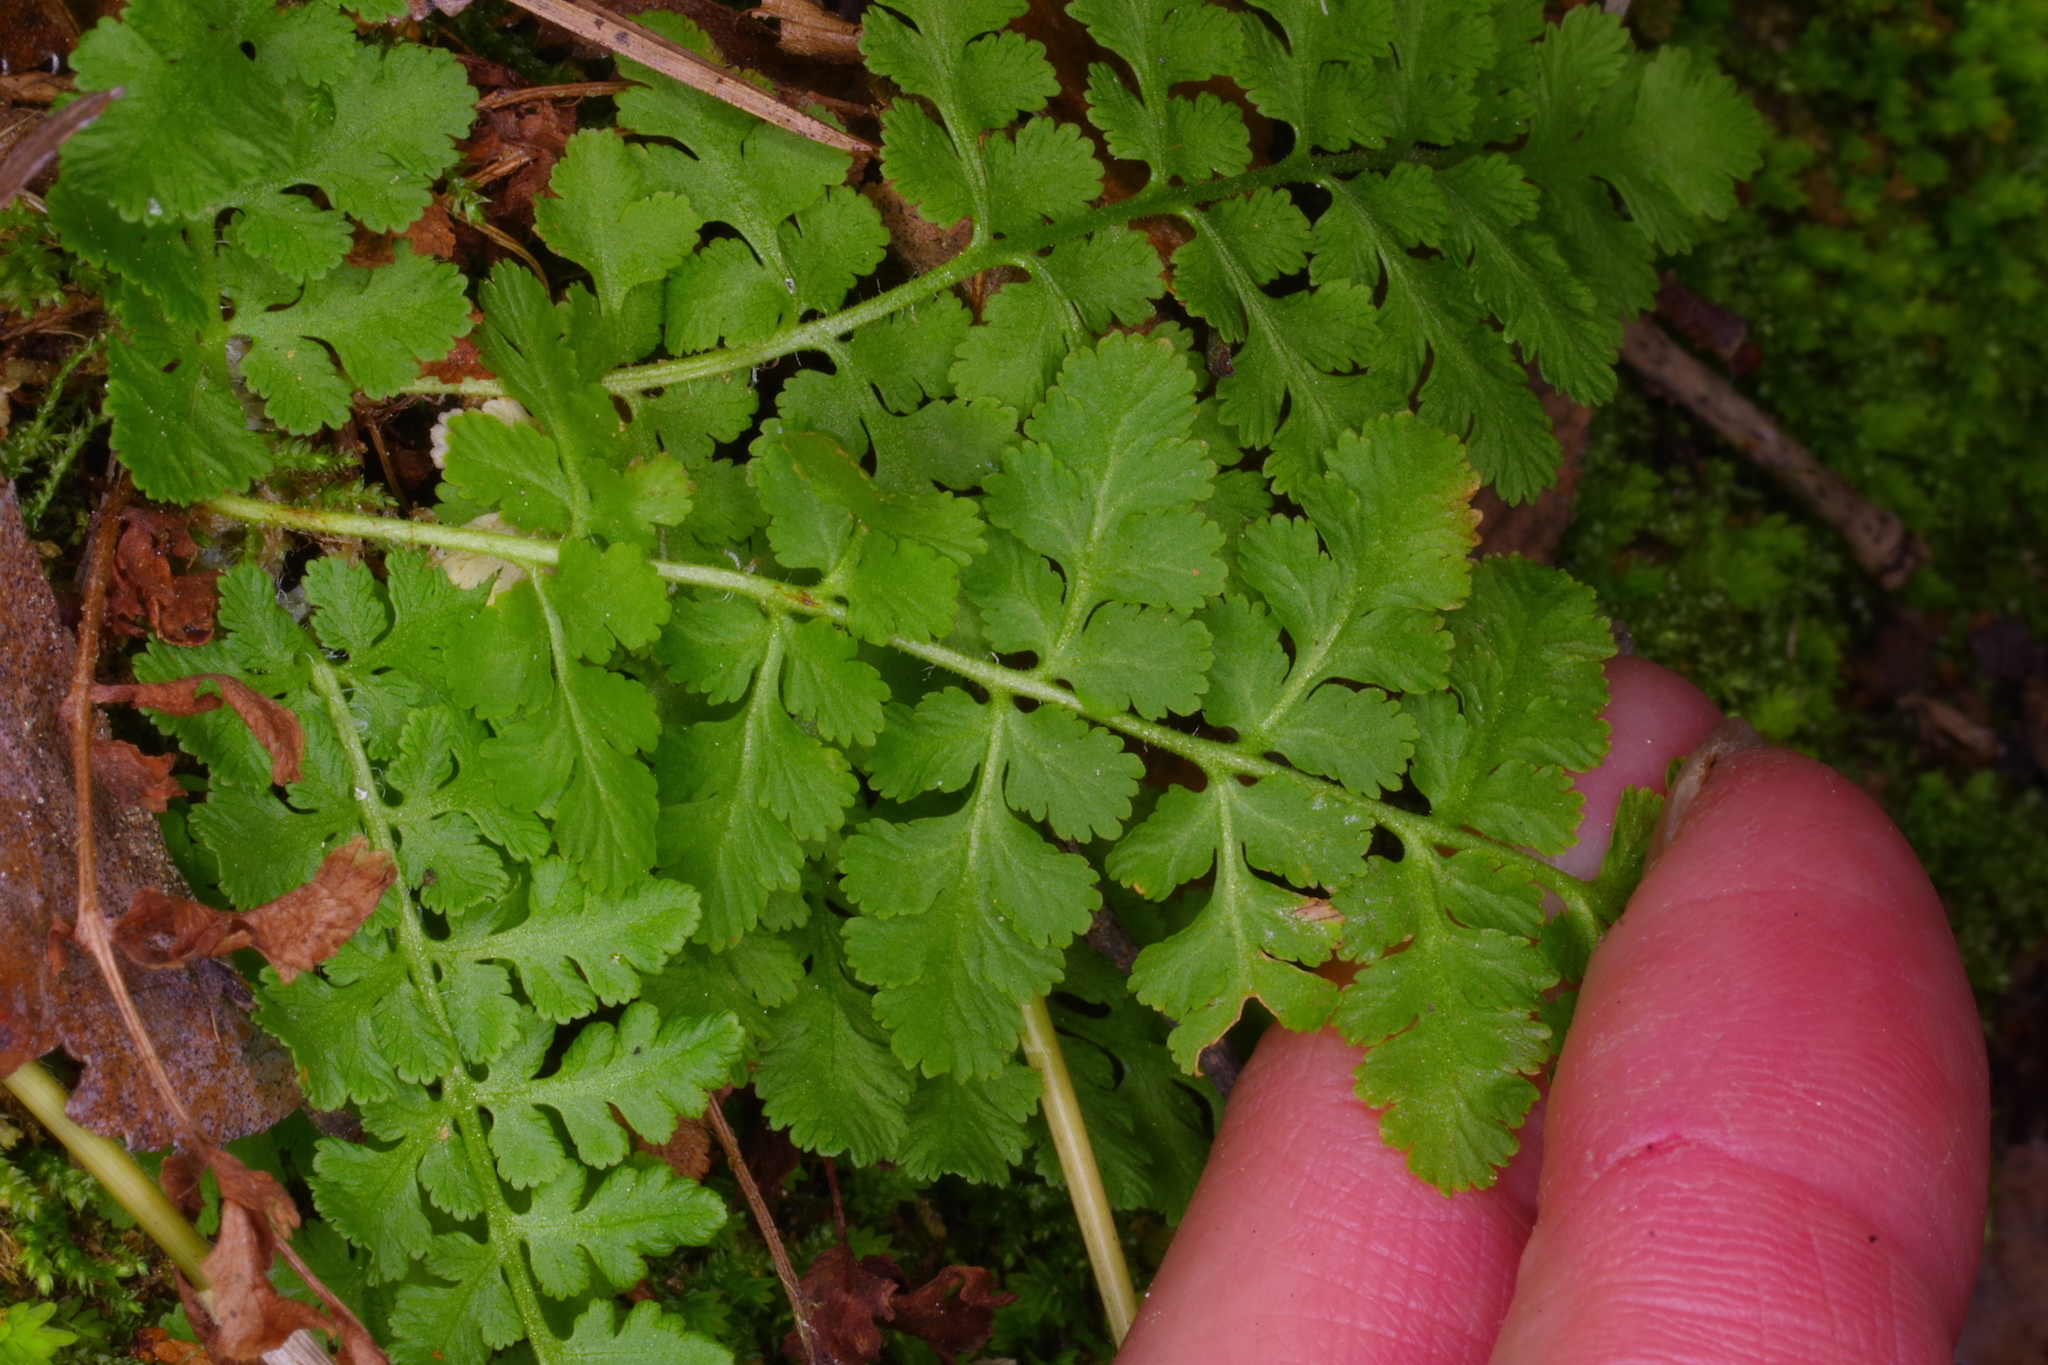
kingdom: Plantae
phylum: Tracheophyta
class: Polypodiopsida
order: Polypodiales
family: Woodsiaceae
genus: Physematium
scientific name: Physematium obtusum
